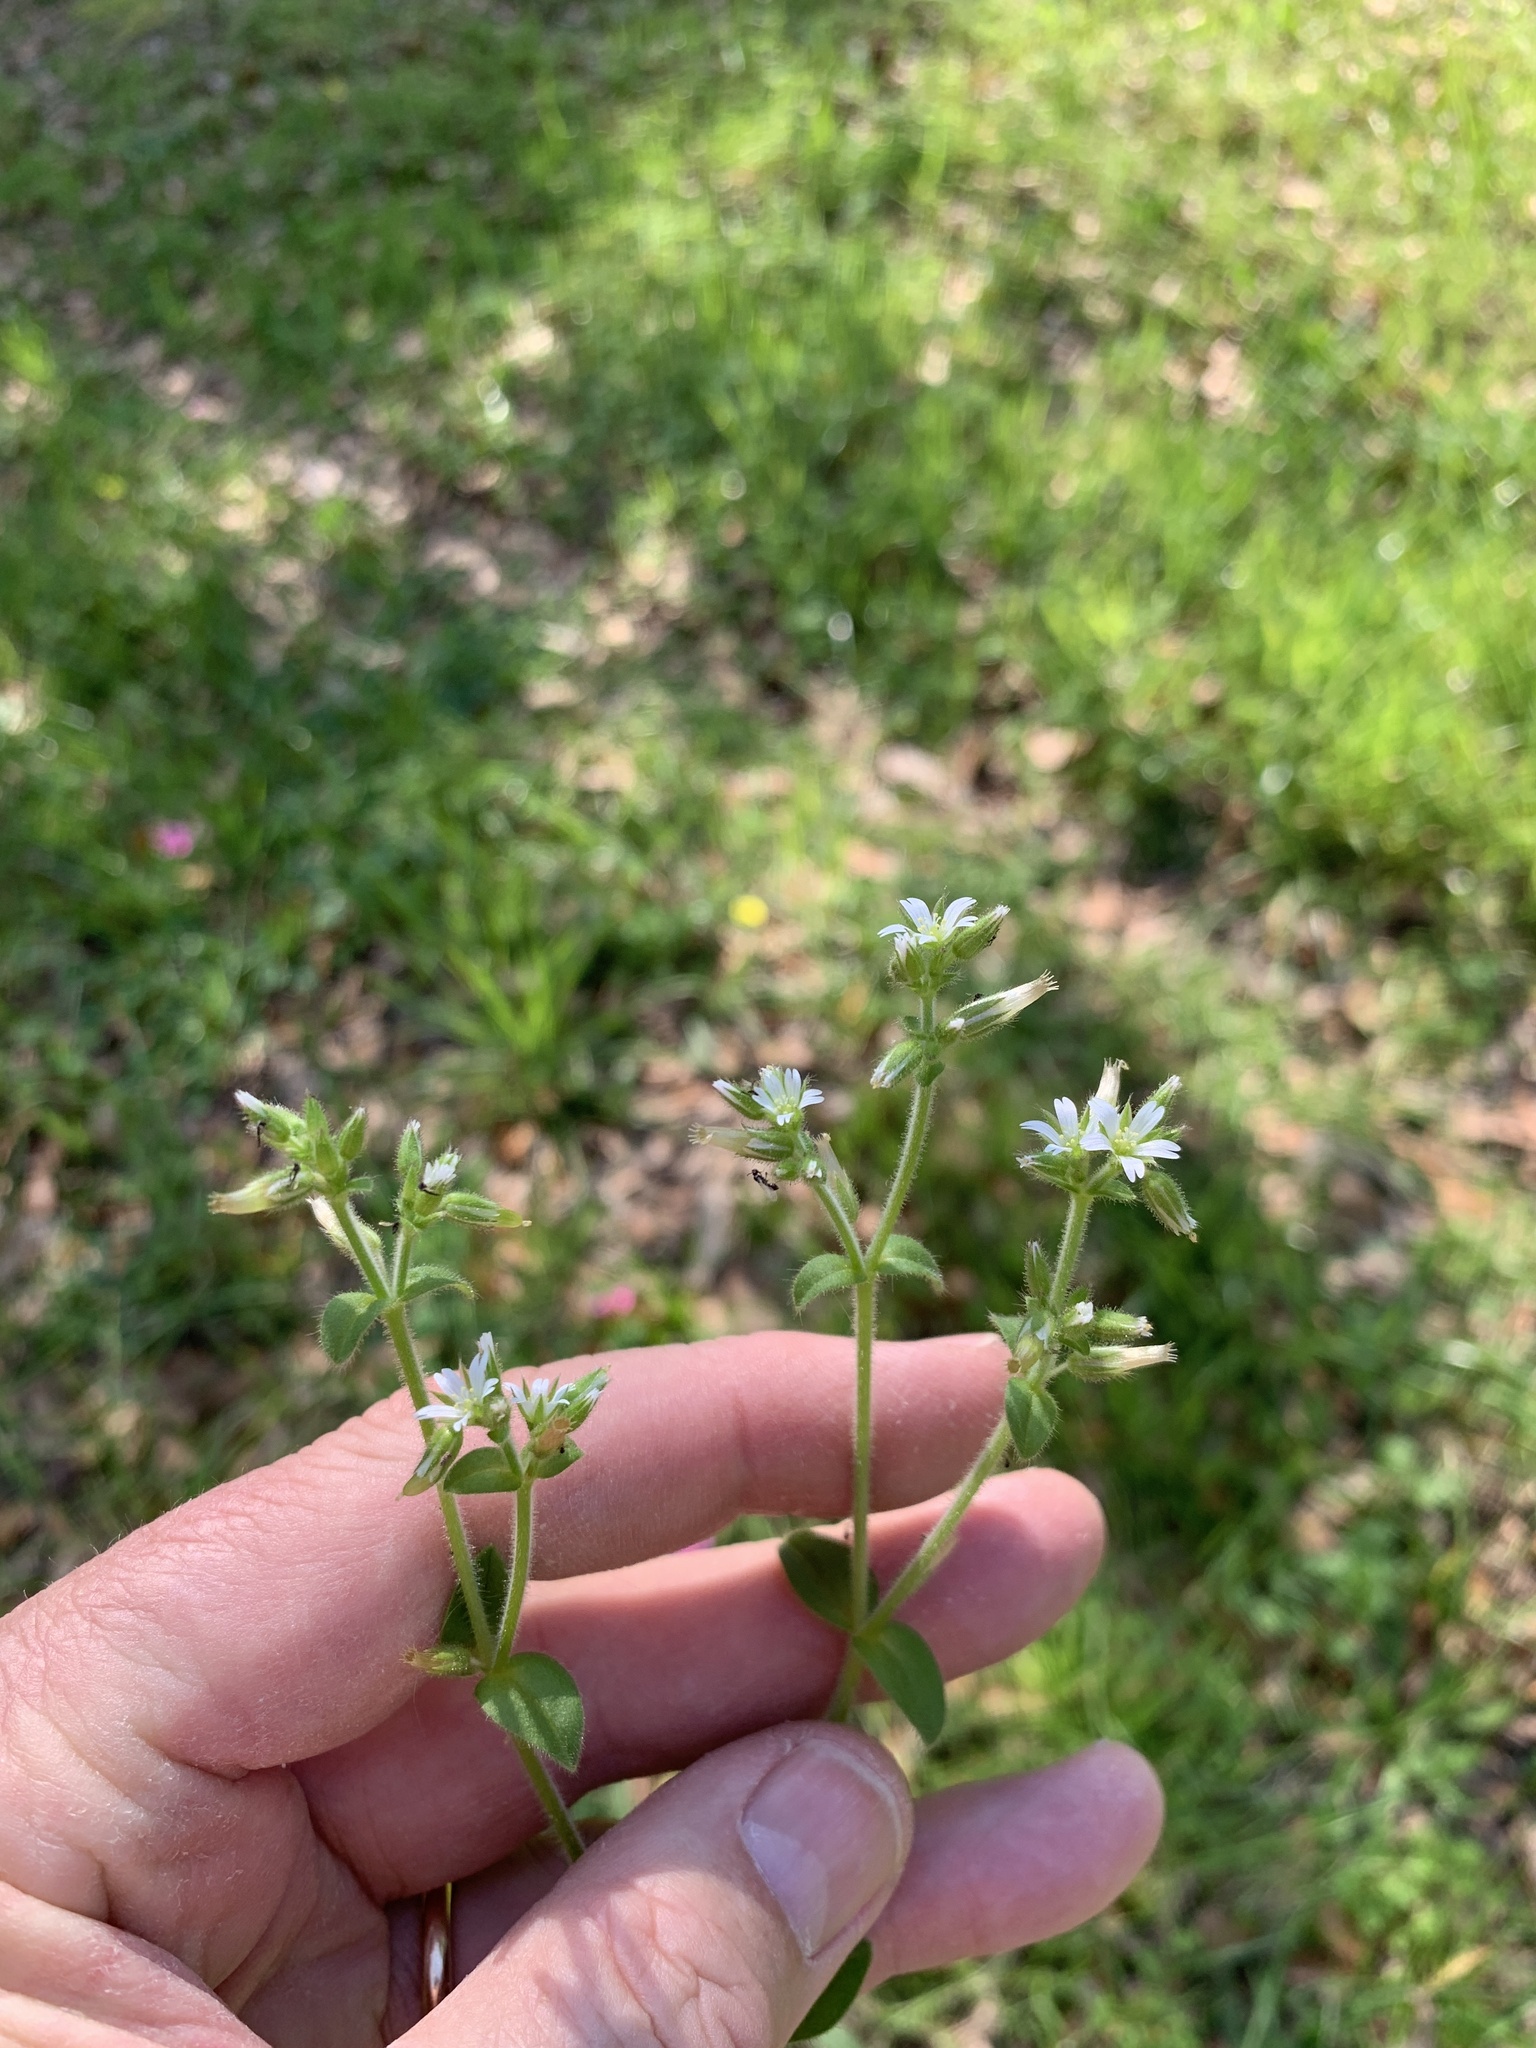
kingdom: Plantae
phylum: Tracheophyta
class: Magnoliopsida
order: Caryophyllales
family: Caryophyllaceae
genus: Cerastium
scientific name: Cerastium glomeratum
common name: Sticky chickweed
